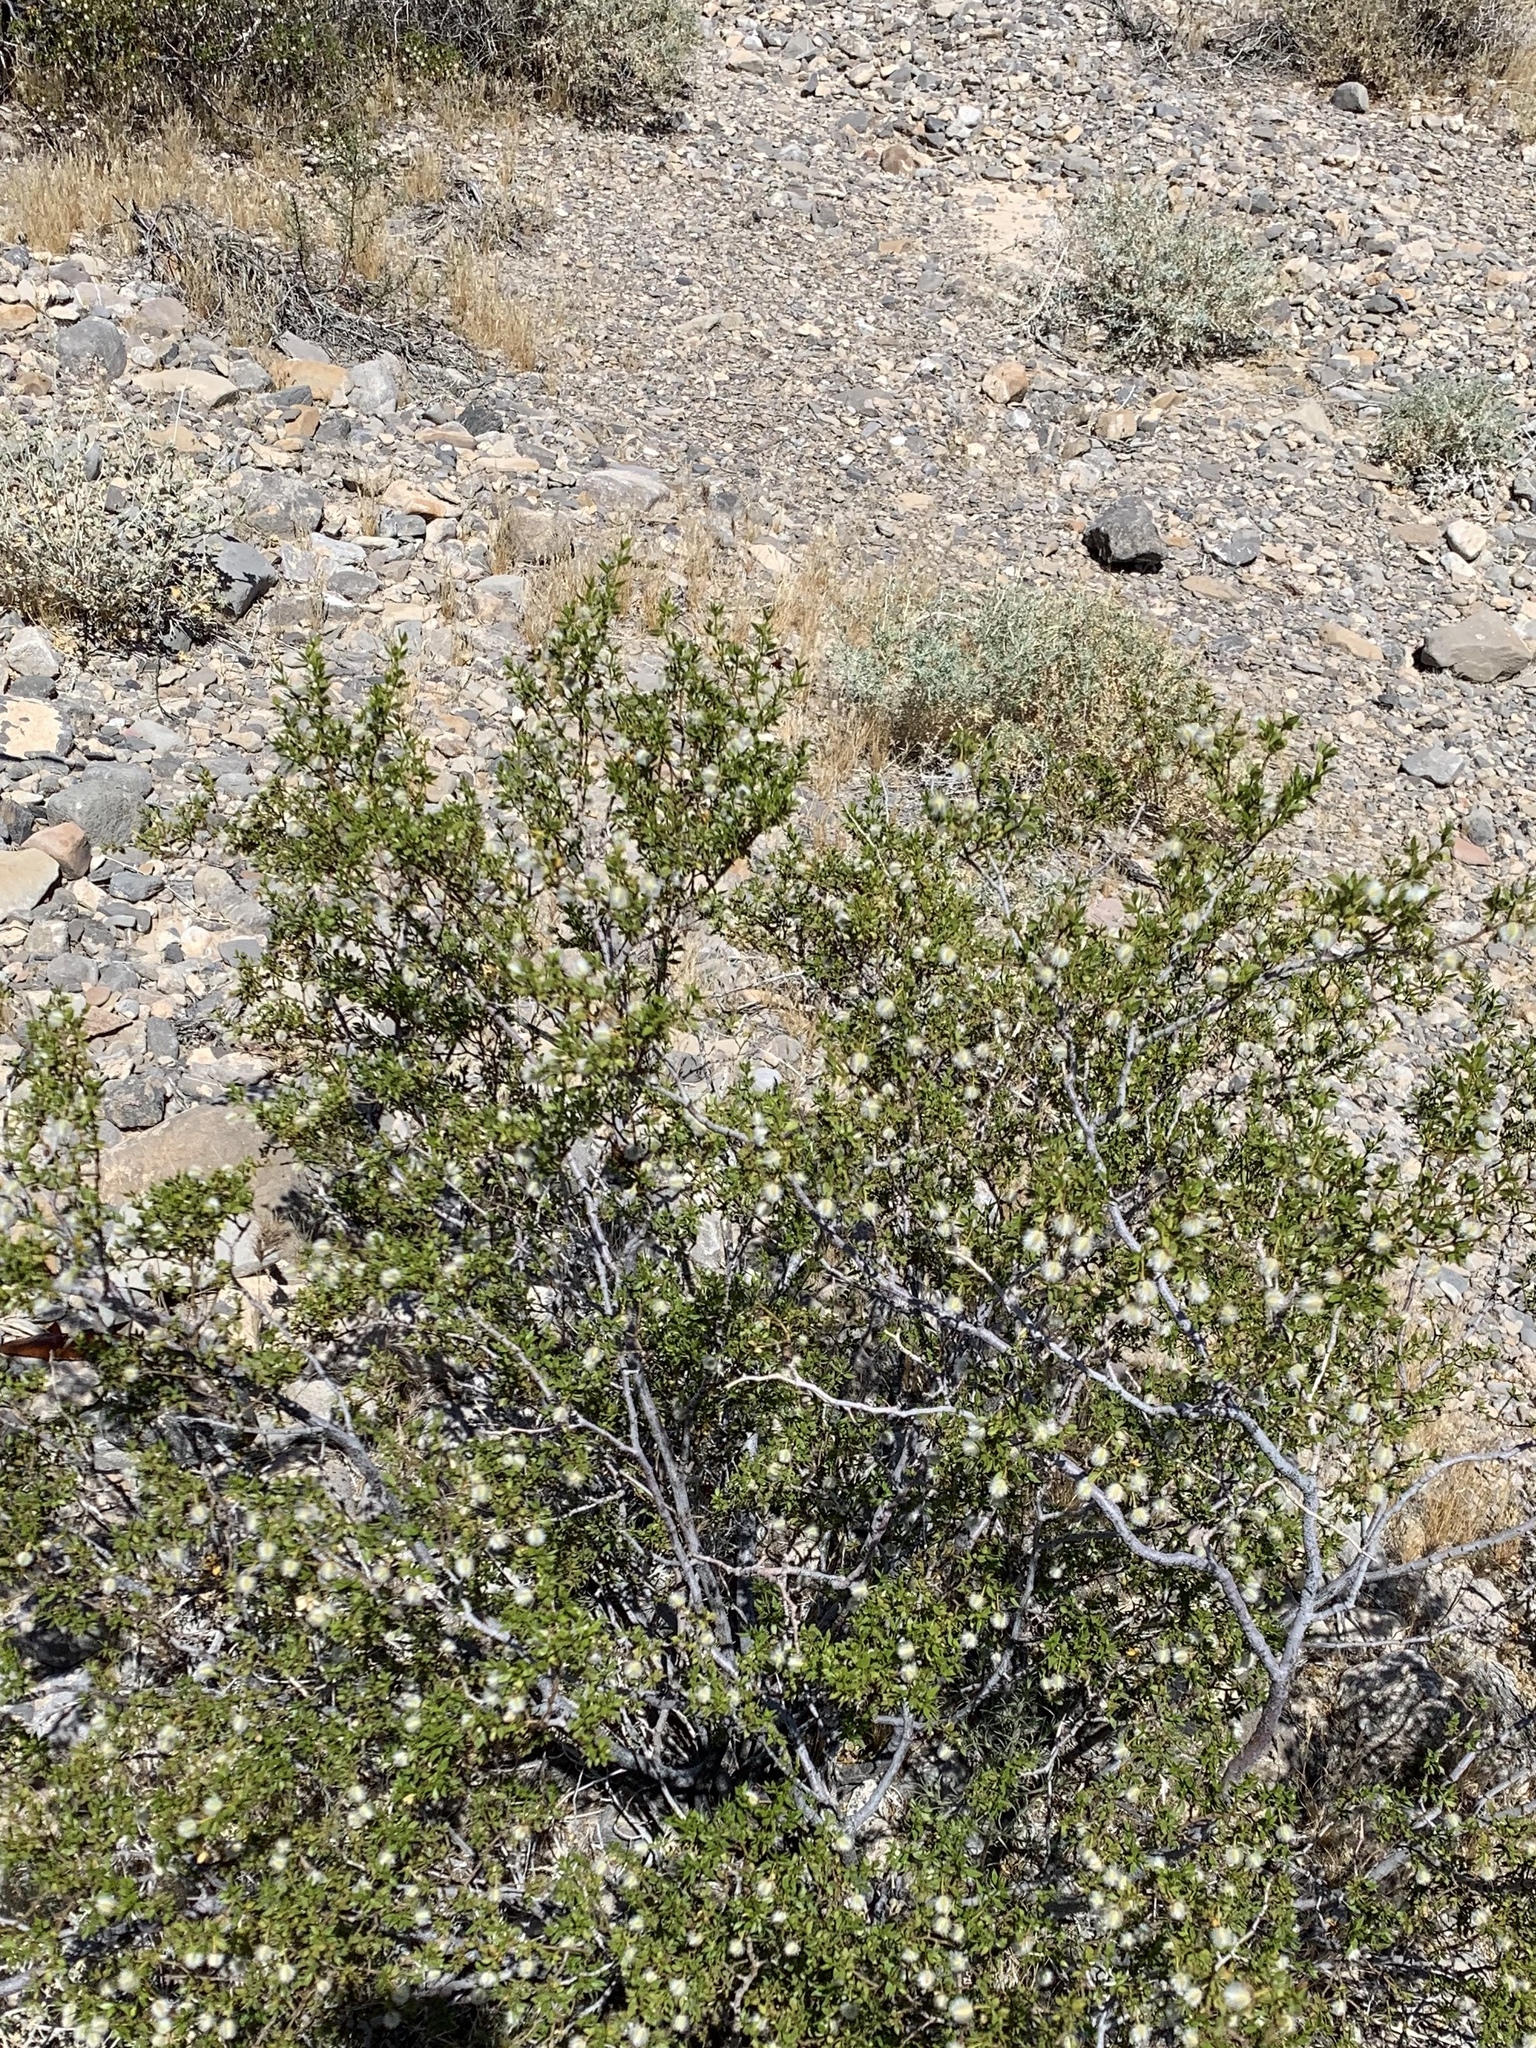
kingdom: Plantae
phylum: Tracheophyta
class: Magnoliopsida
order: Zygophyllales
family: Zygophyllaceae
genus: Larrea
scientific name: Larrea tridentata
